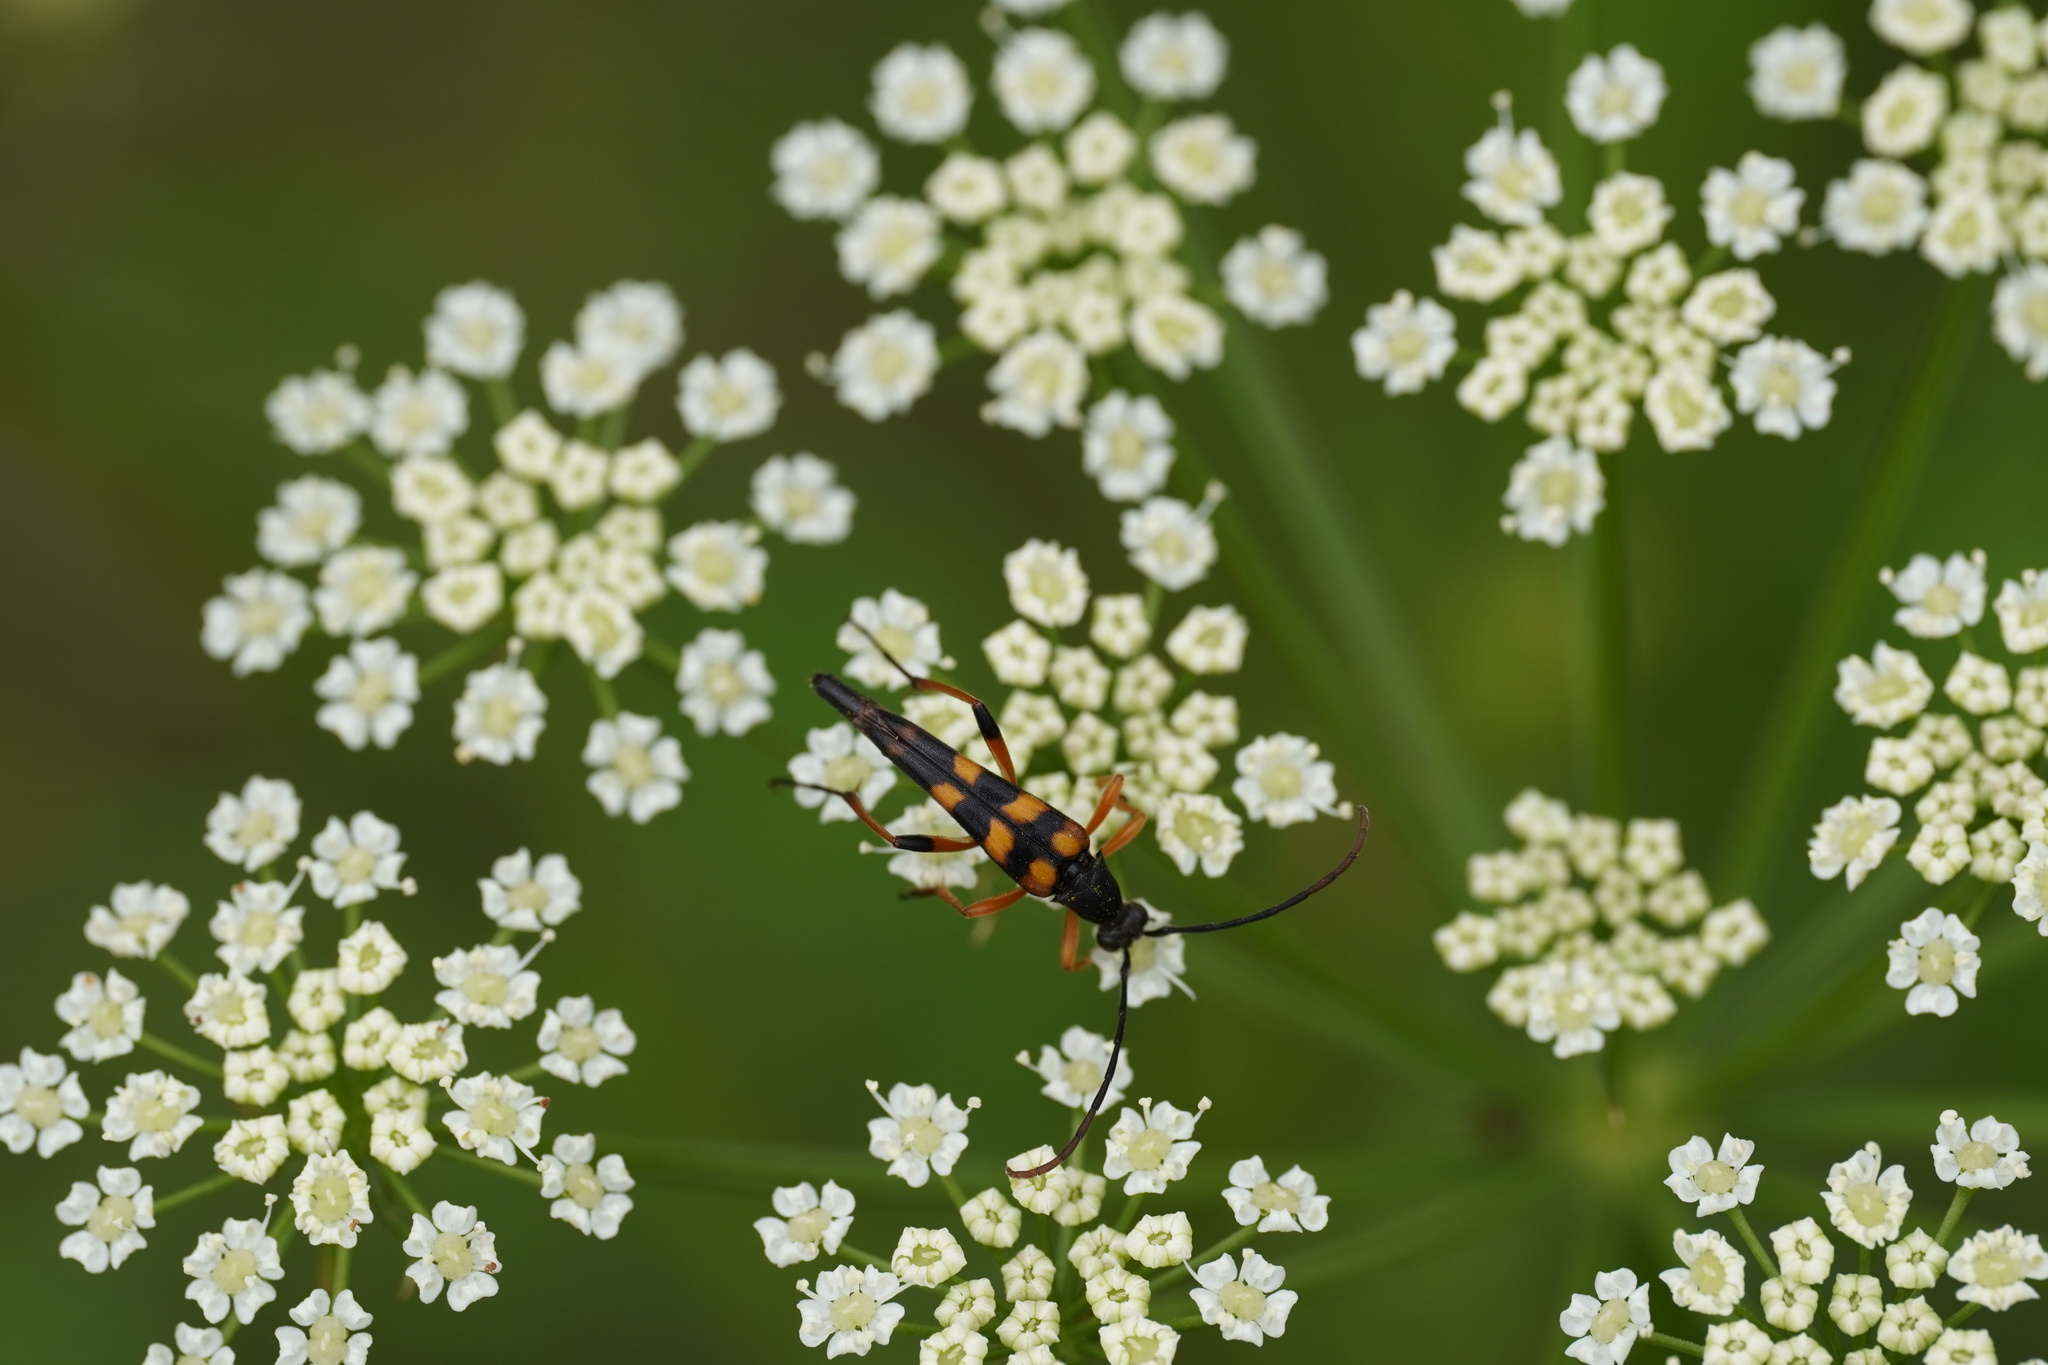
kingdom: Animalia
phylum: Arthropoda
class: Insecta
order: Coleoptera
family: Cerambycidae
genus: Strangalia
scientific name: Strangalia attenuata
